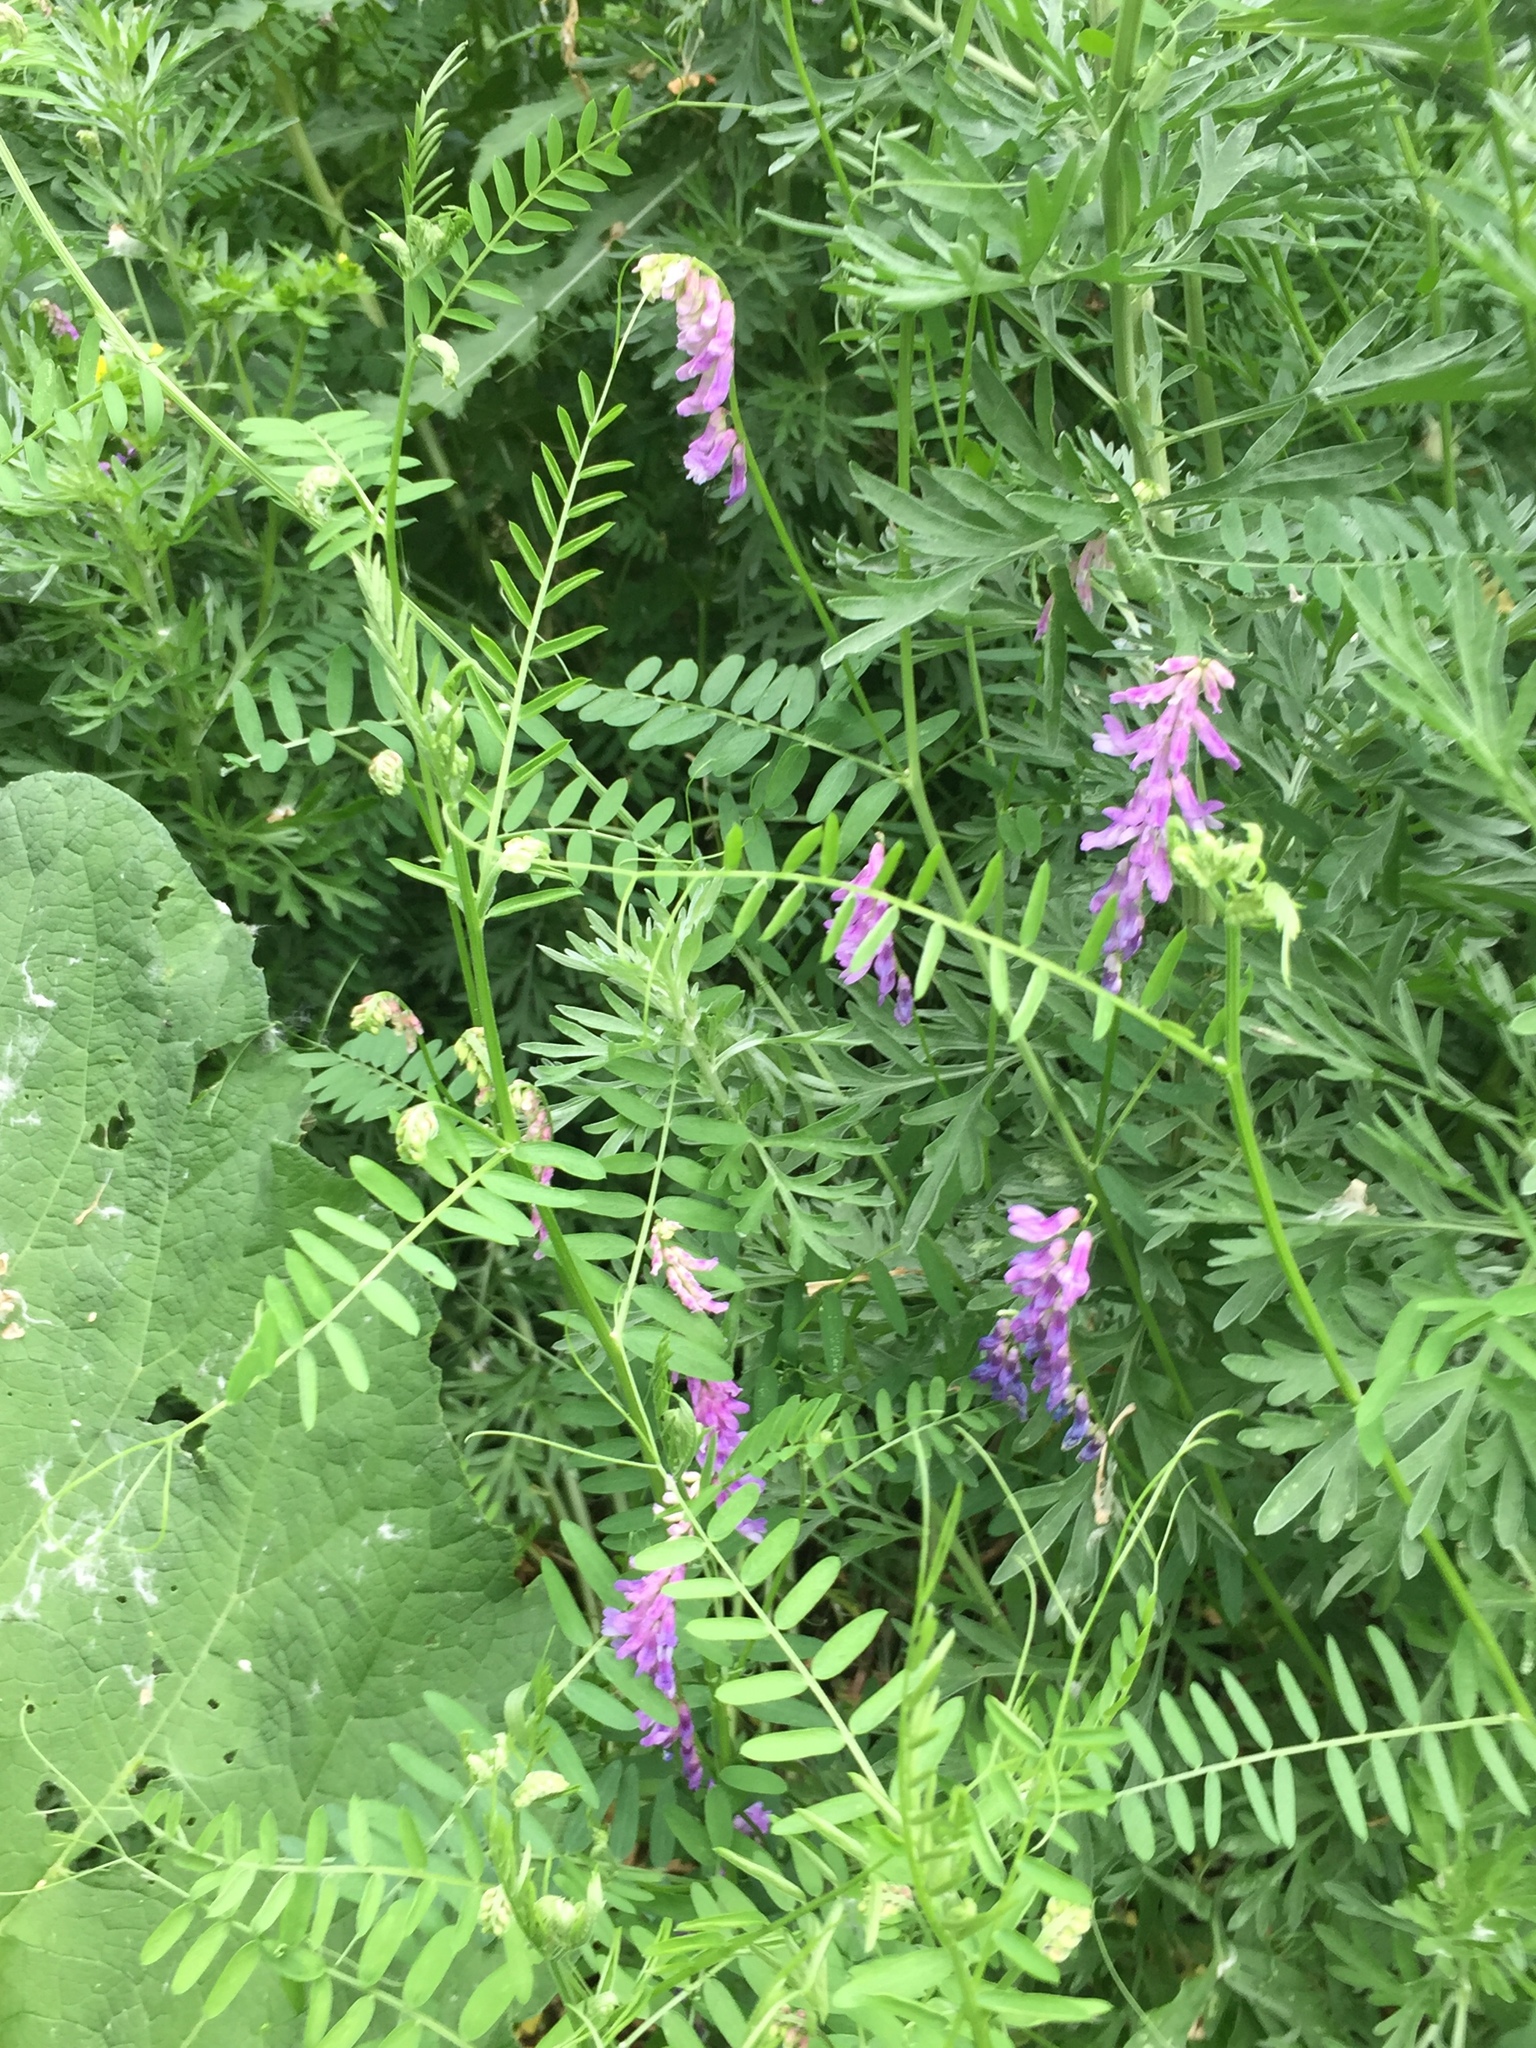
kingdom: Plantae
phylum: Tracheophyta
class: Magnoliopsida
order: Fabales
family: Fabaceae
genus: Vicia
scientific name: Vicia cracca
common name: Bird vetch
